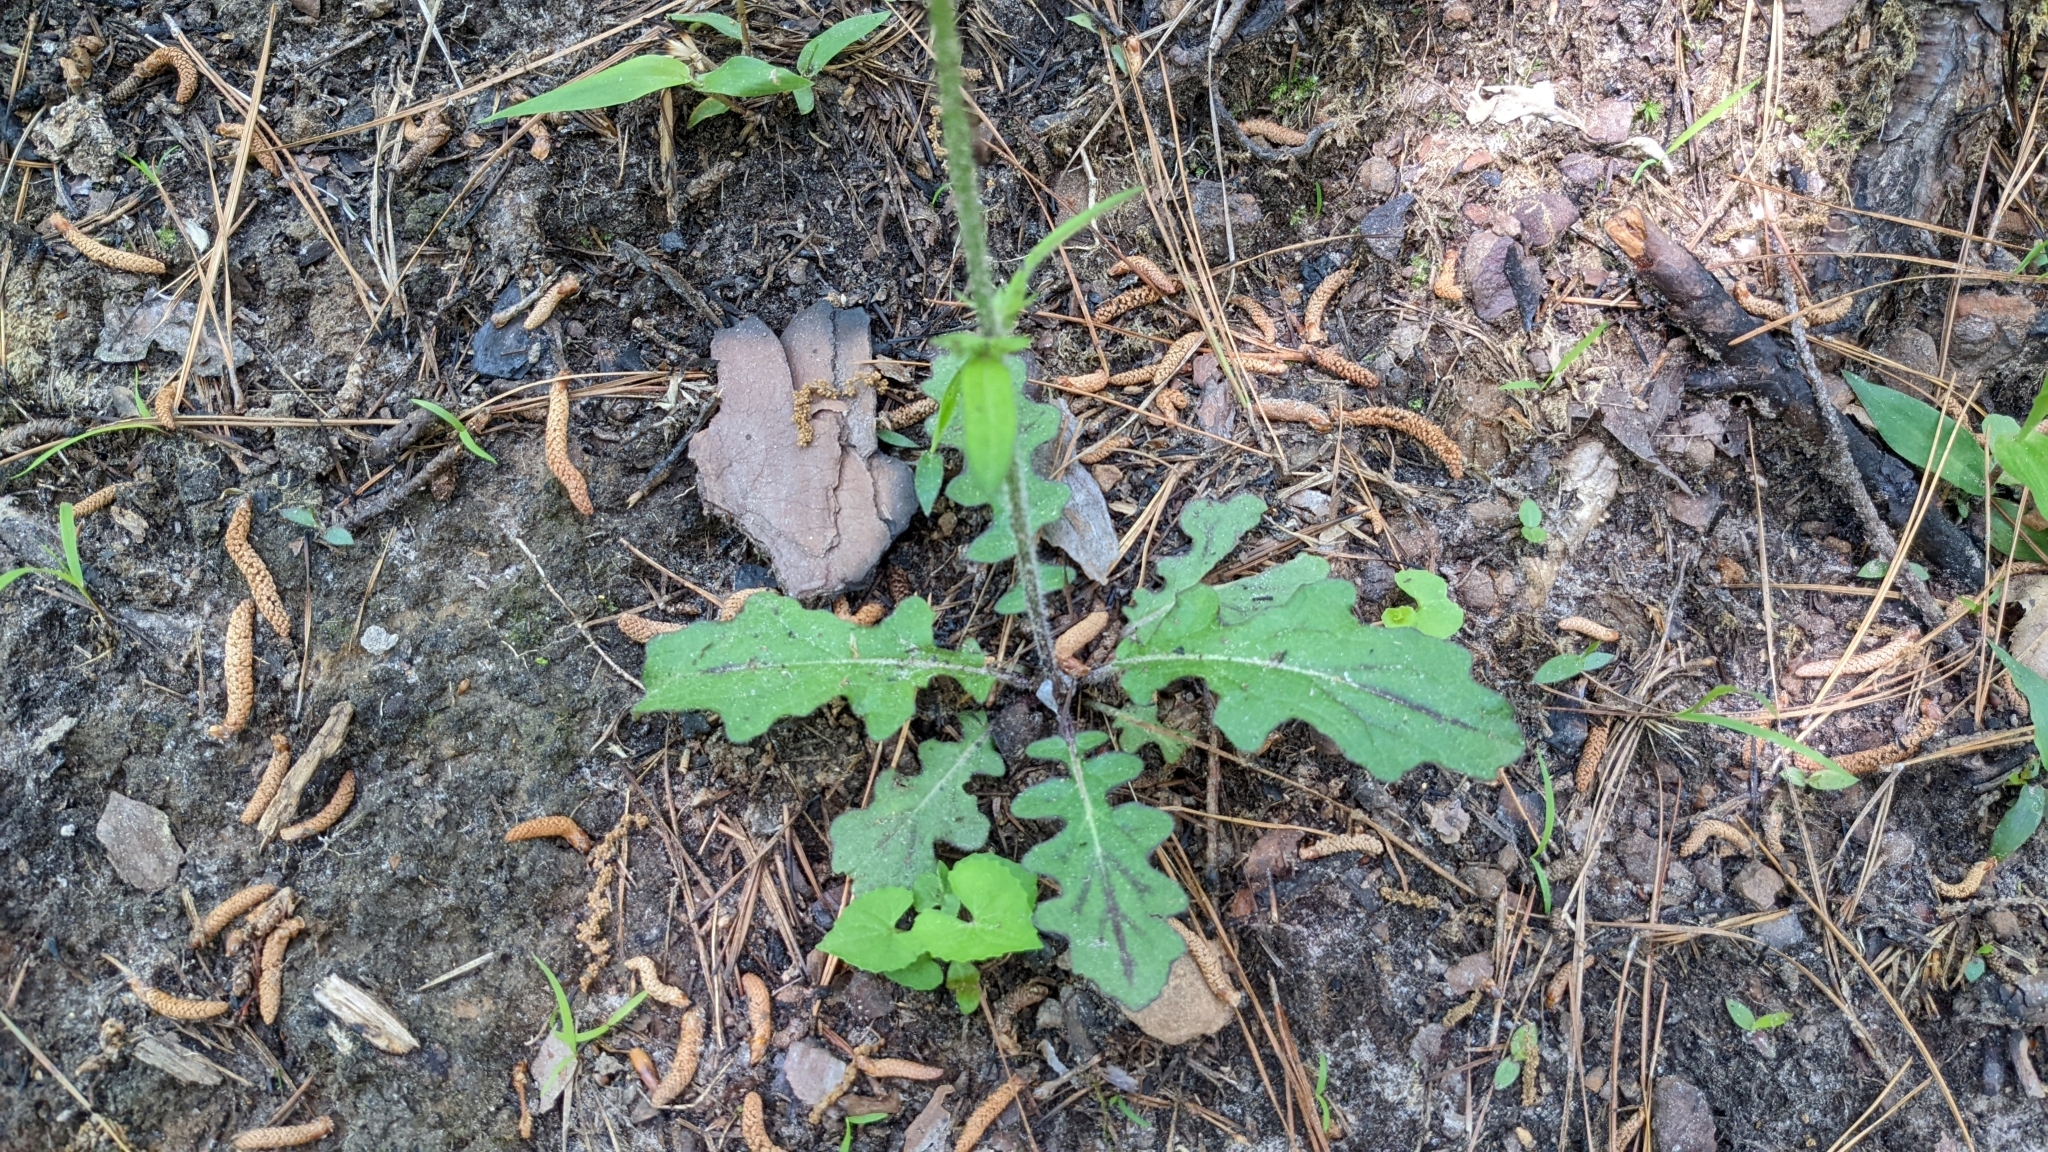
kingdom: Plantae
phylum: Tracheophyta
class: Magnoliopsida
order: Lamiales
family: Lamiaceae
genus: Salvia
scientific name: Salvia lyrata
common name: Cancerweed
